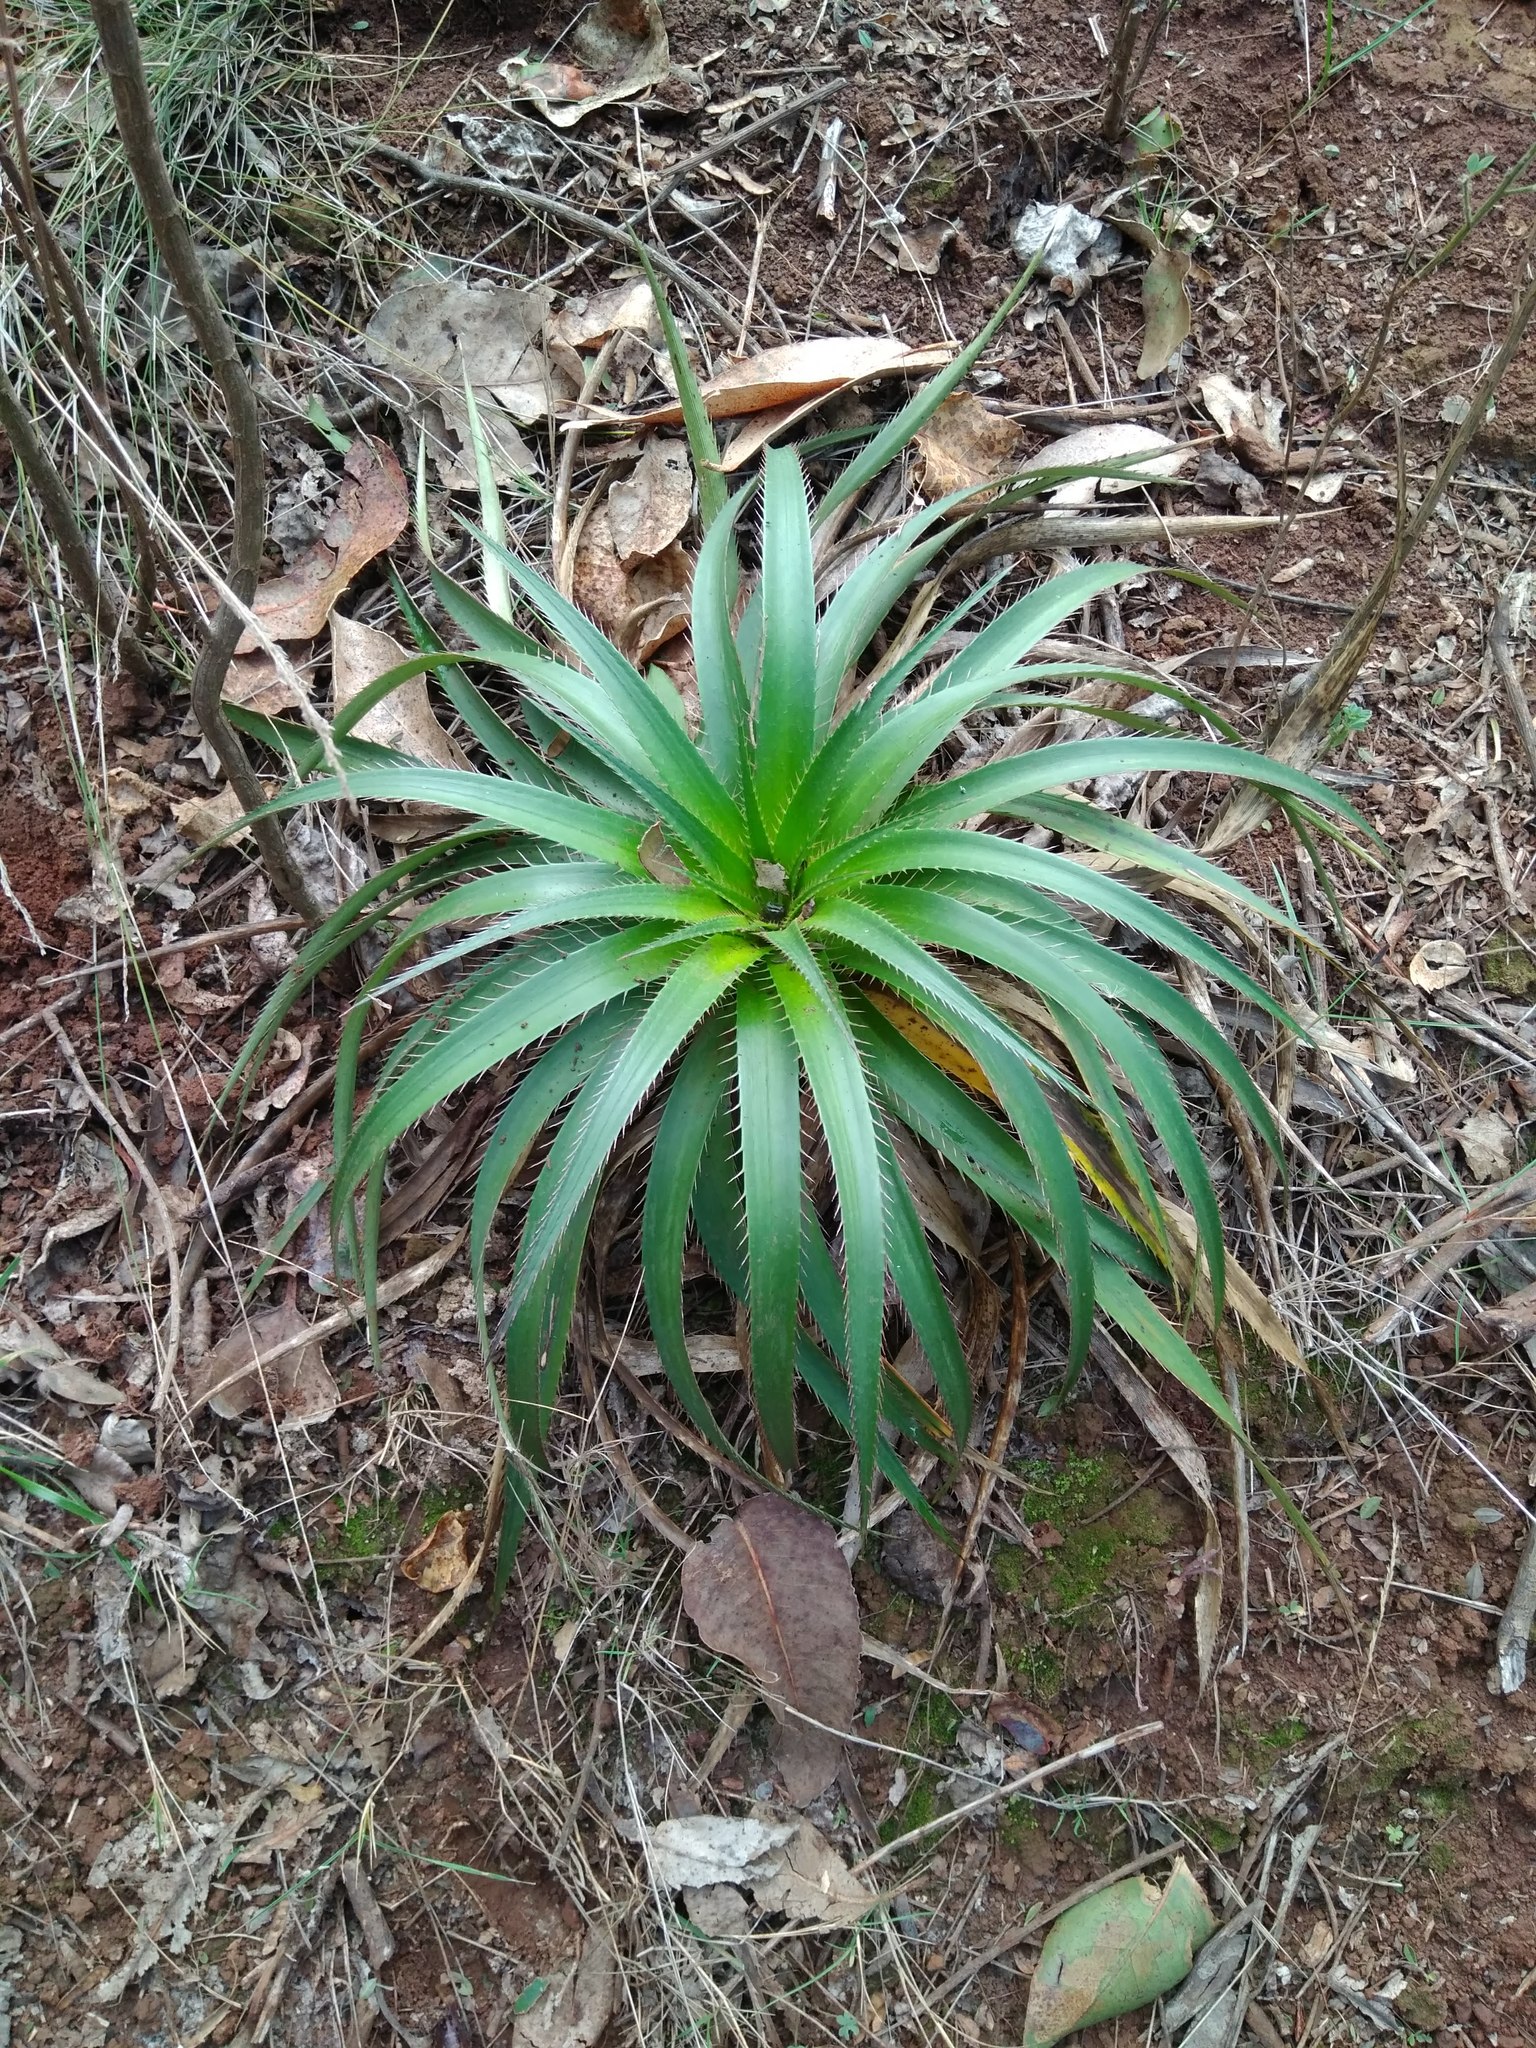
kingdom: Plantae
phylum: Tracheophyta
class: Magnoliopsida
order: Apiales
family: Apiaceae
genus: Eryngium
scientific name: Eryngium humboldtii
